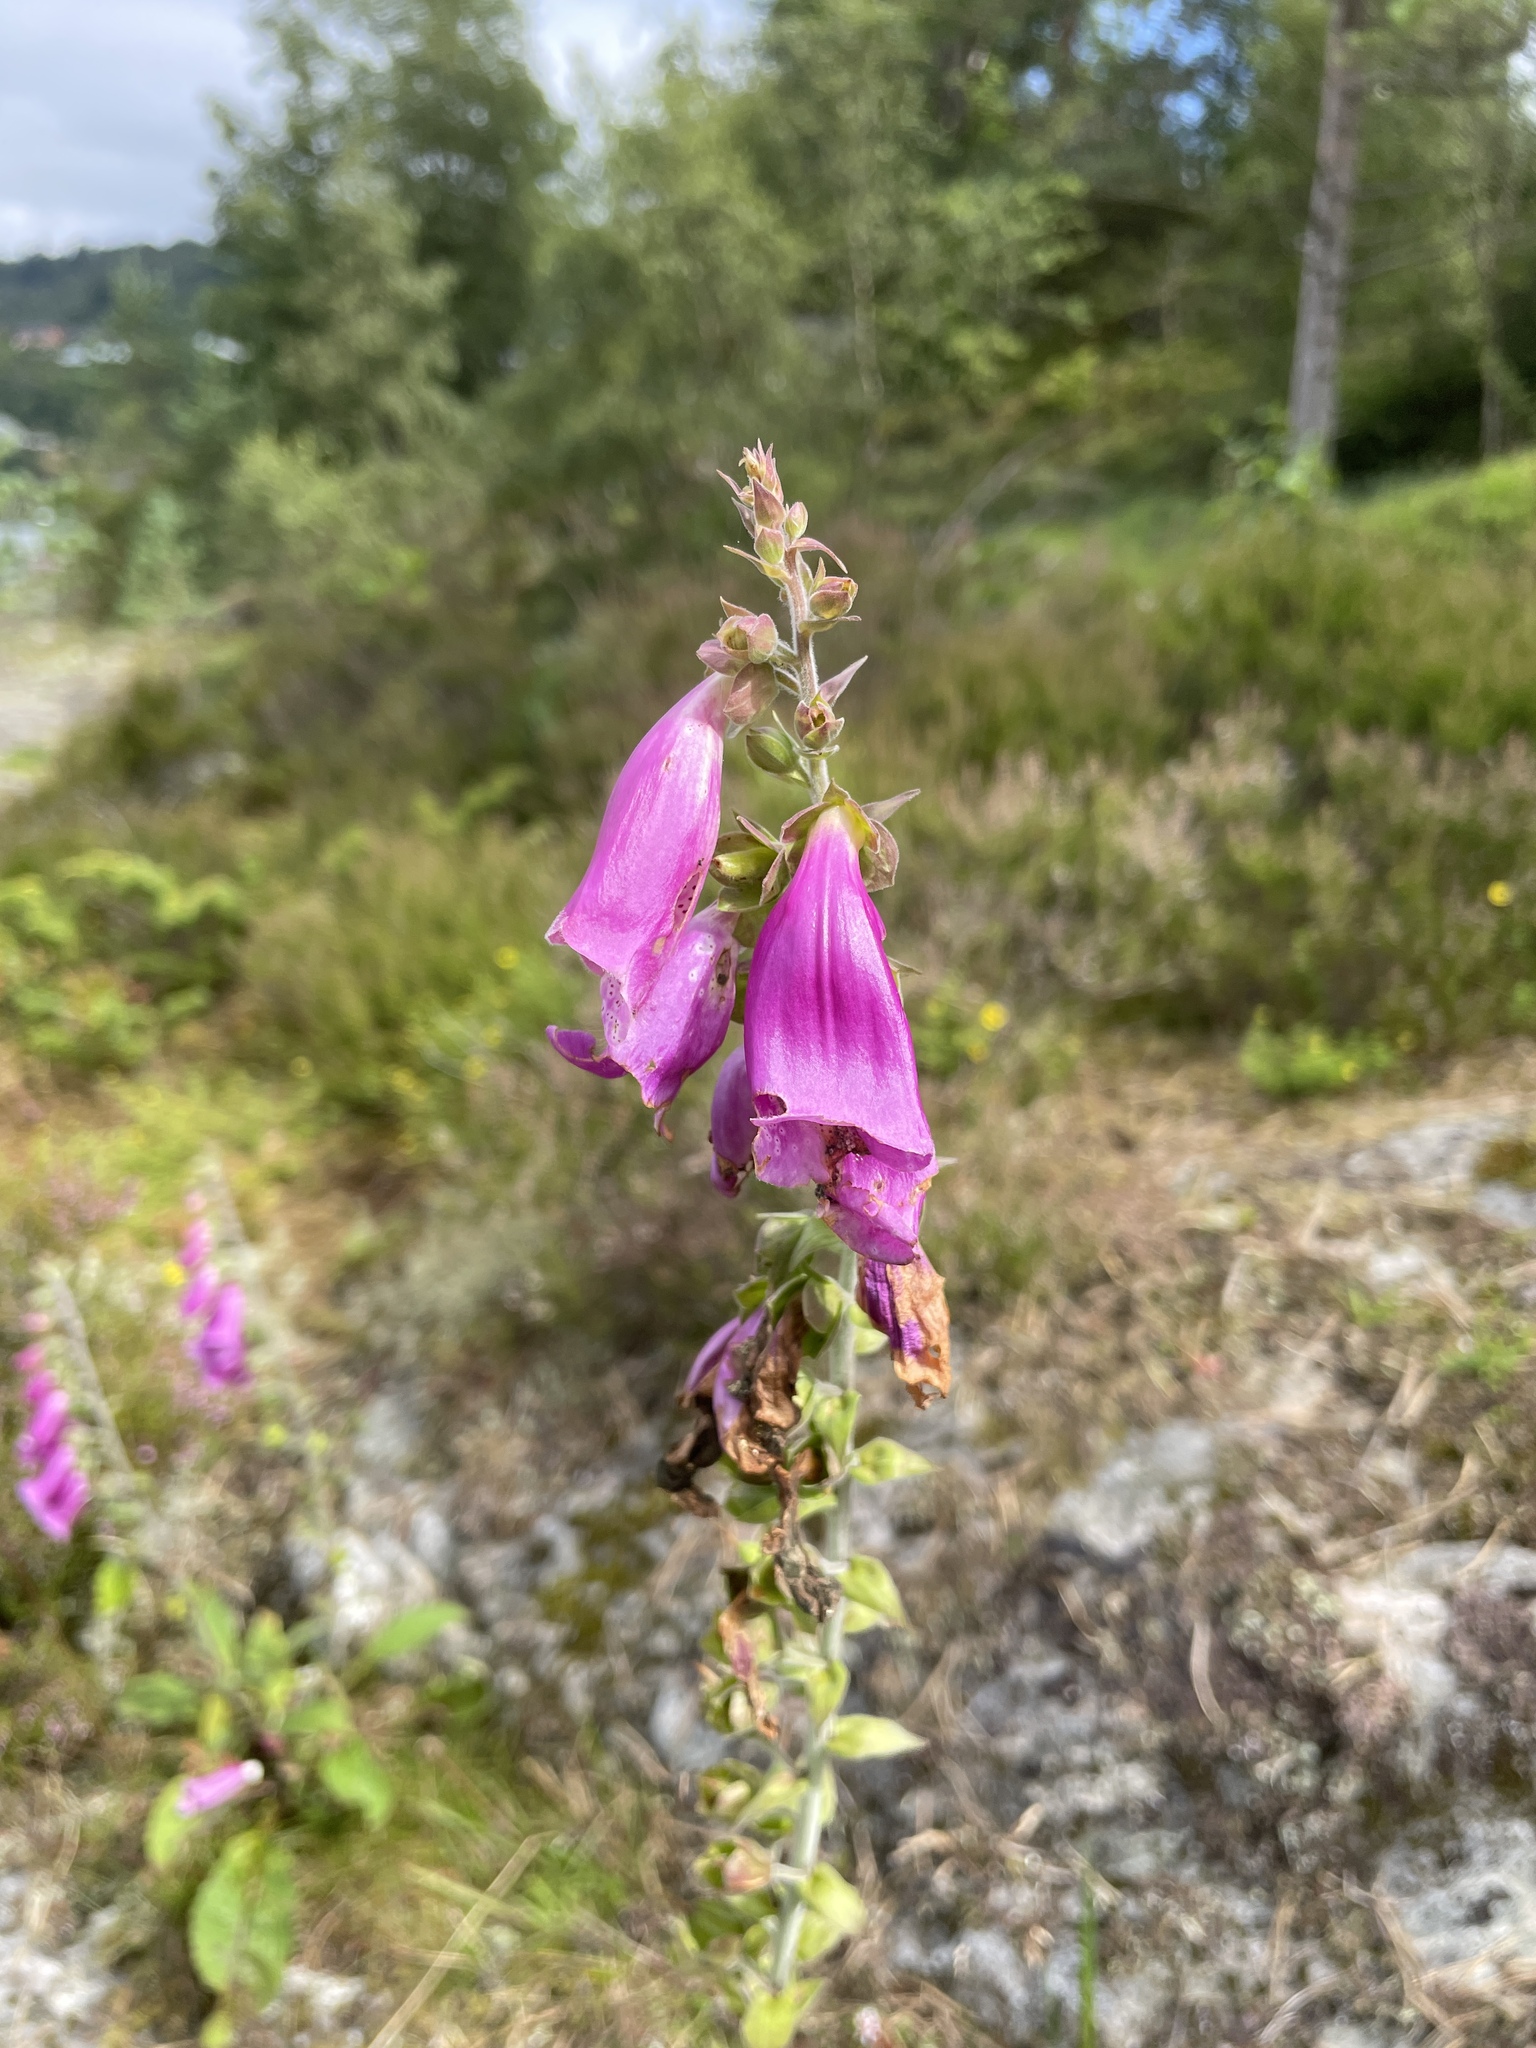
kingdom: Plantae
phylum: Tracheophyta
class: Magnoliopsida
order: Lamiales
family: Plantaginaceae
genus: Digitalis
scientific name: Digitalis purpurea
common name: Foxglove
